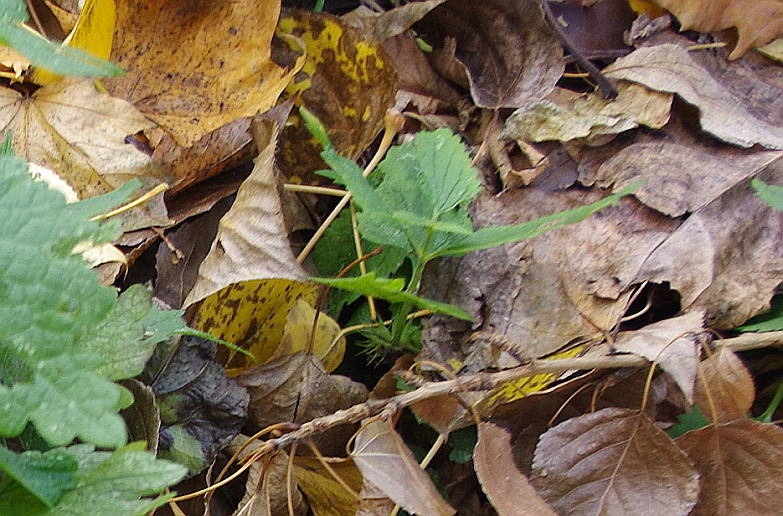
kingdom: Plantae
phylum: Tracheophyta
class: Magnoliopsida
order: Lamiales
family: Lamiaceae
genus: Lamium
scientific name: Lamium album
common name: White dead-nettle
